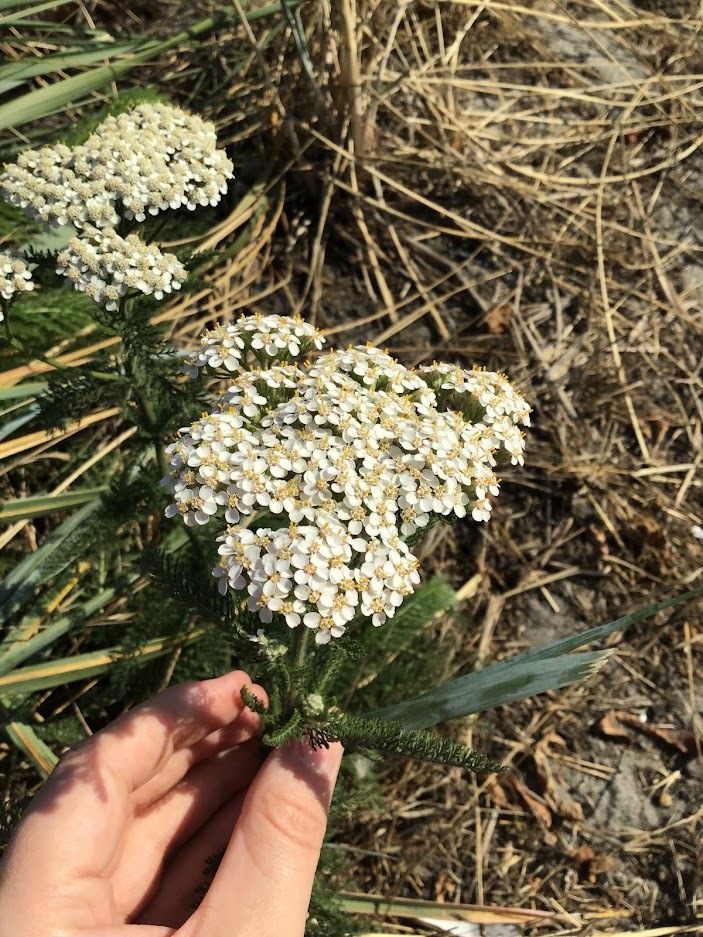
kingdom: Plantae
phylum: Tracheophyta
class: Magnoliopsida
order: Asterales
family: Asteraceae
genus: Achillea
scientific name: Achillea millefolium
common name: Yarrow
